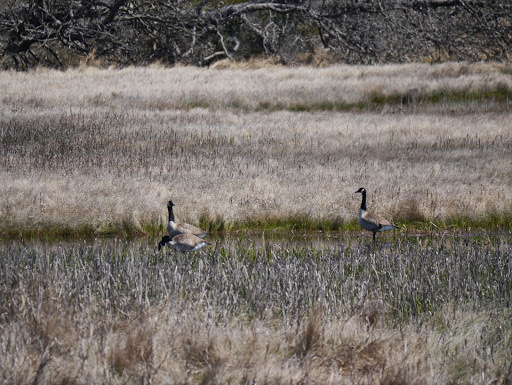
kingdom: Animalia
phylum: Chordata
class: Aves
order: Anseriformes
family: Anatidae
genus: Branta
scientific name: Branta canadensis
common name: Canada goose
